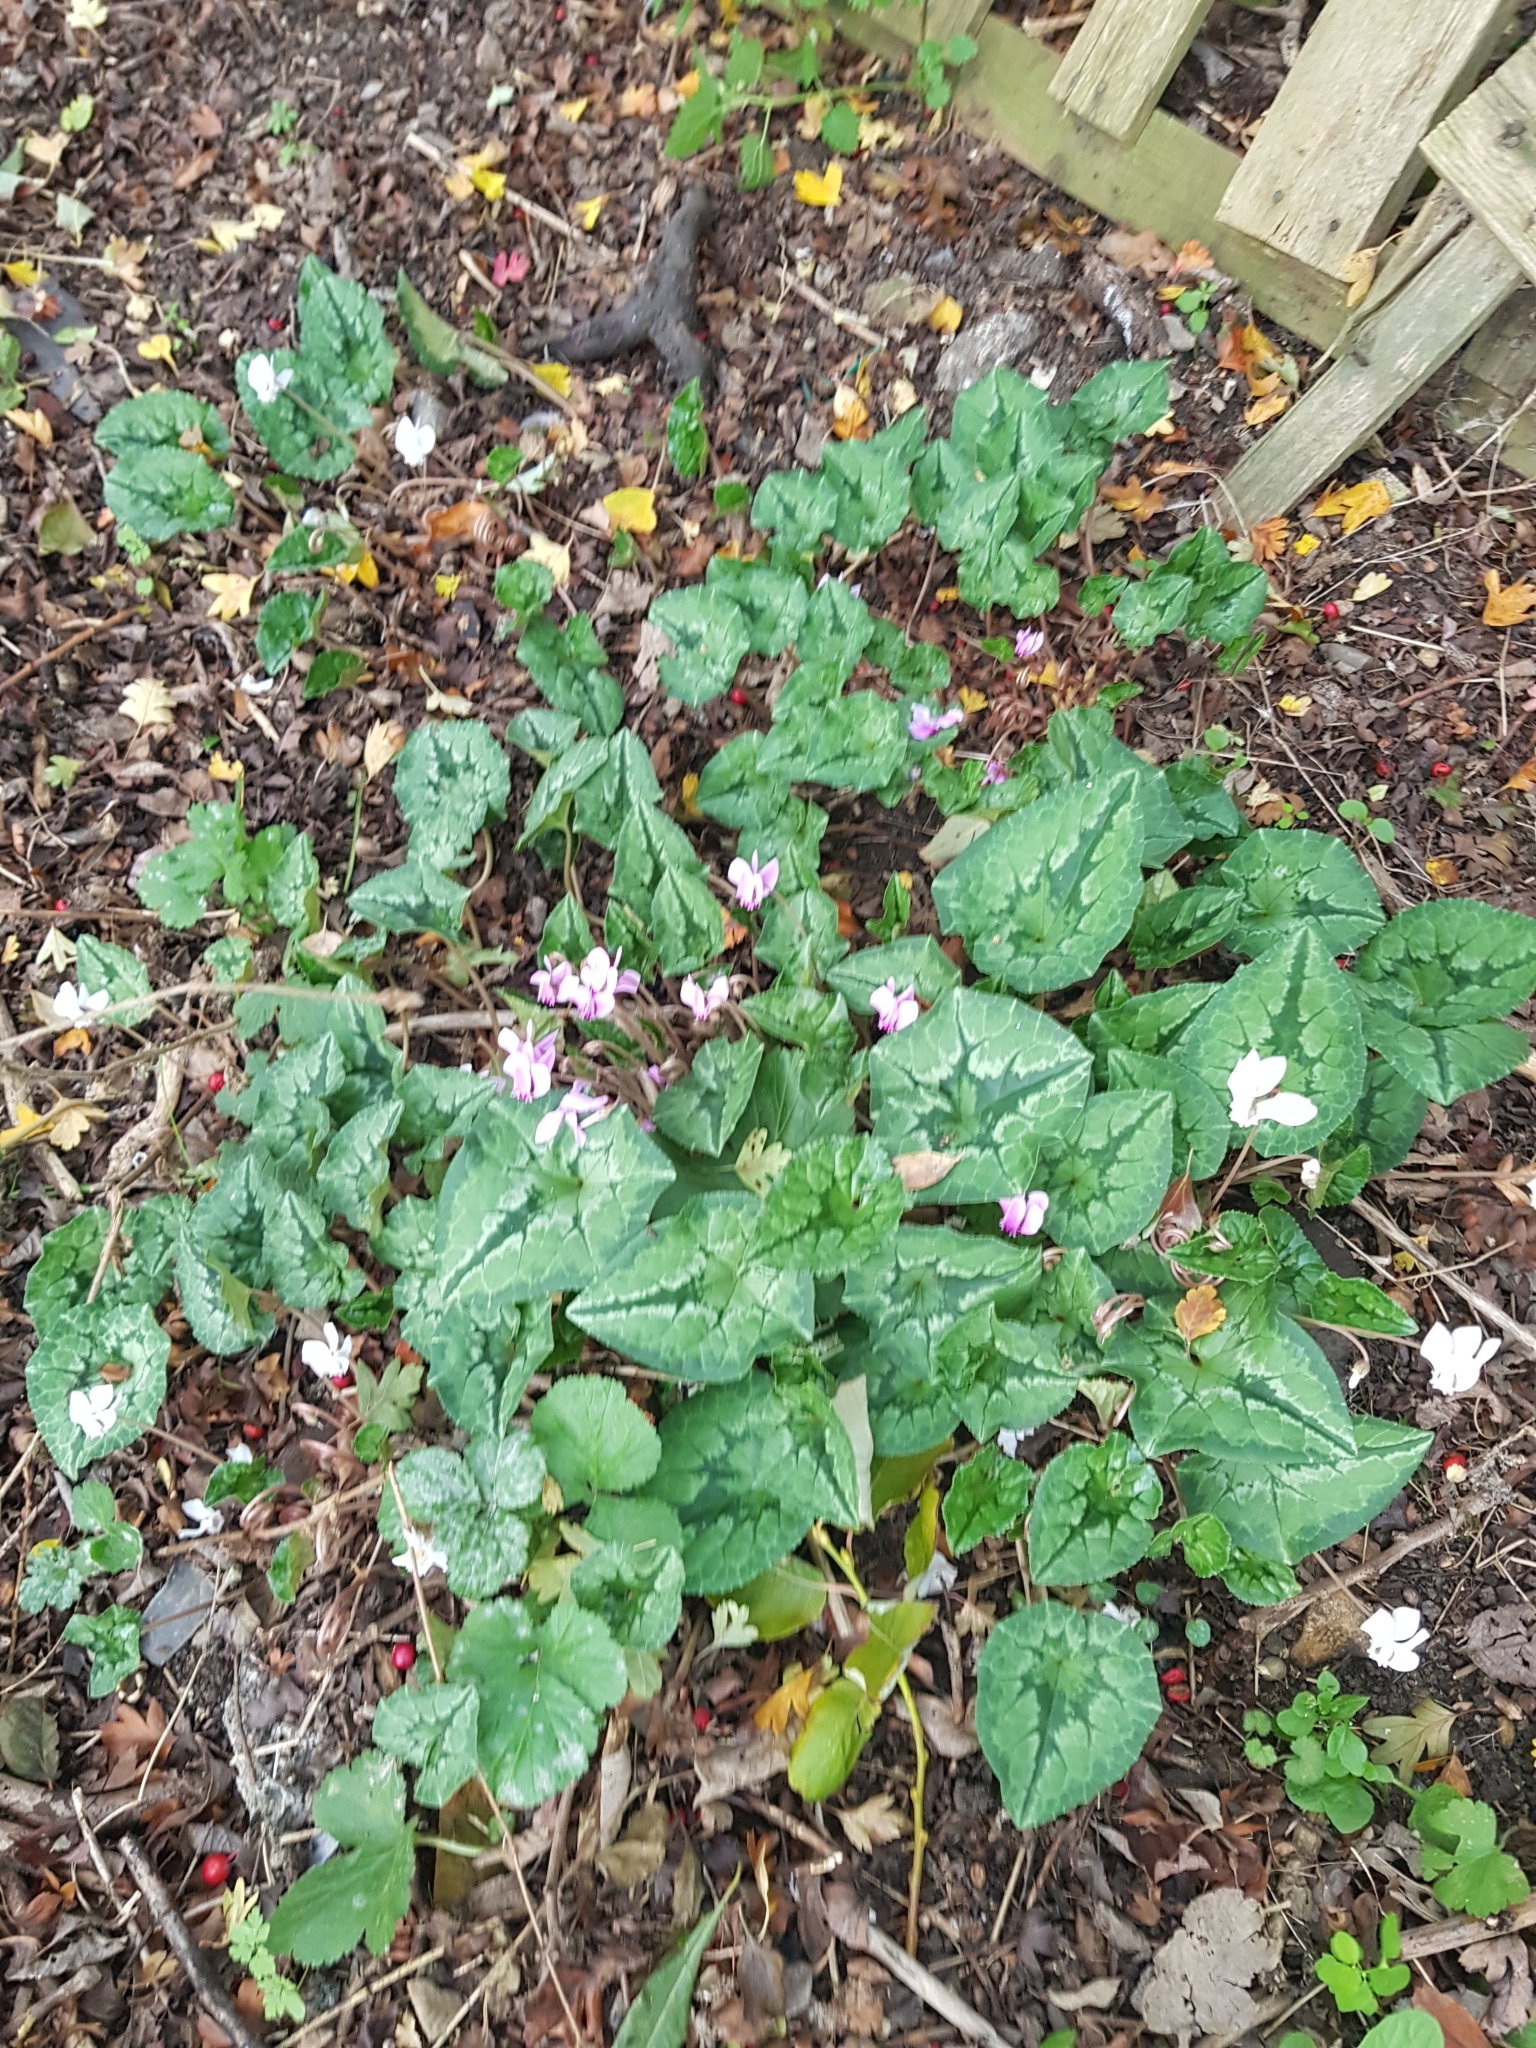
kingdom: Plantae
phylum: Tracheophyta
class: Magnoliopsida
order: Ericales
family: Primulaceae
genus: Cyclamen
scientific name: Cyclamen hederifolium
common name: Sowbread
